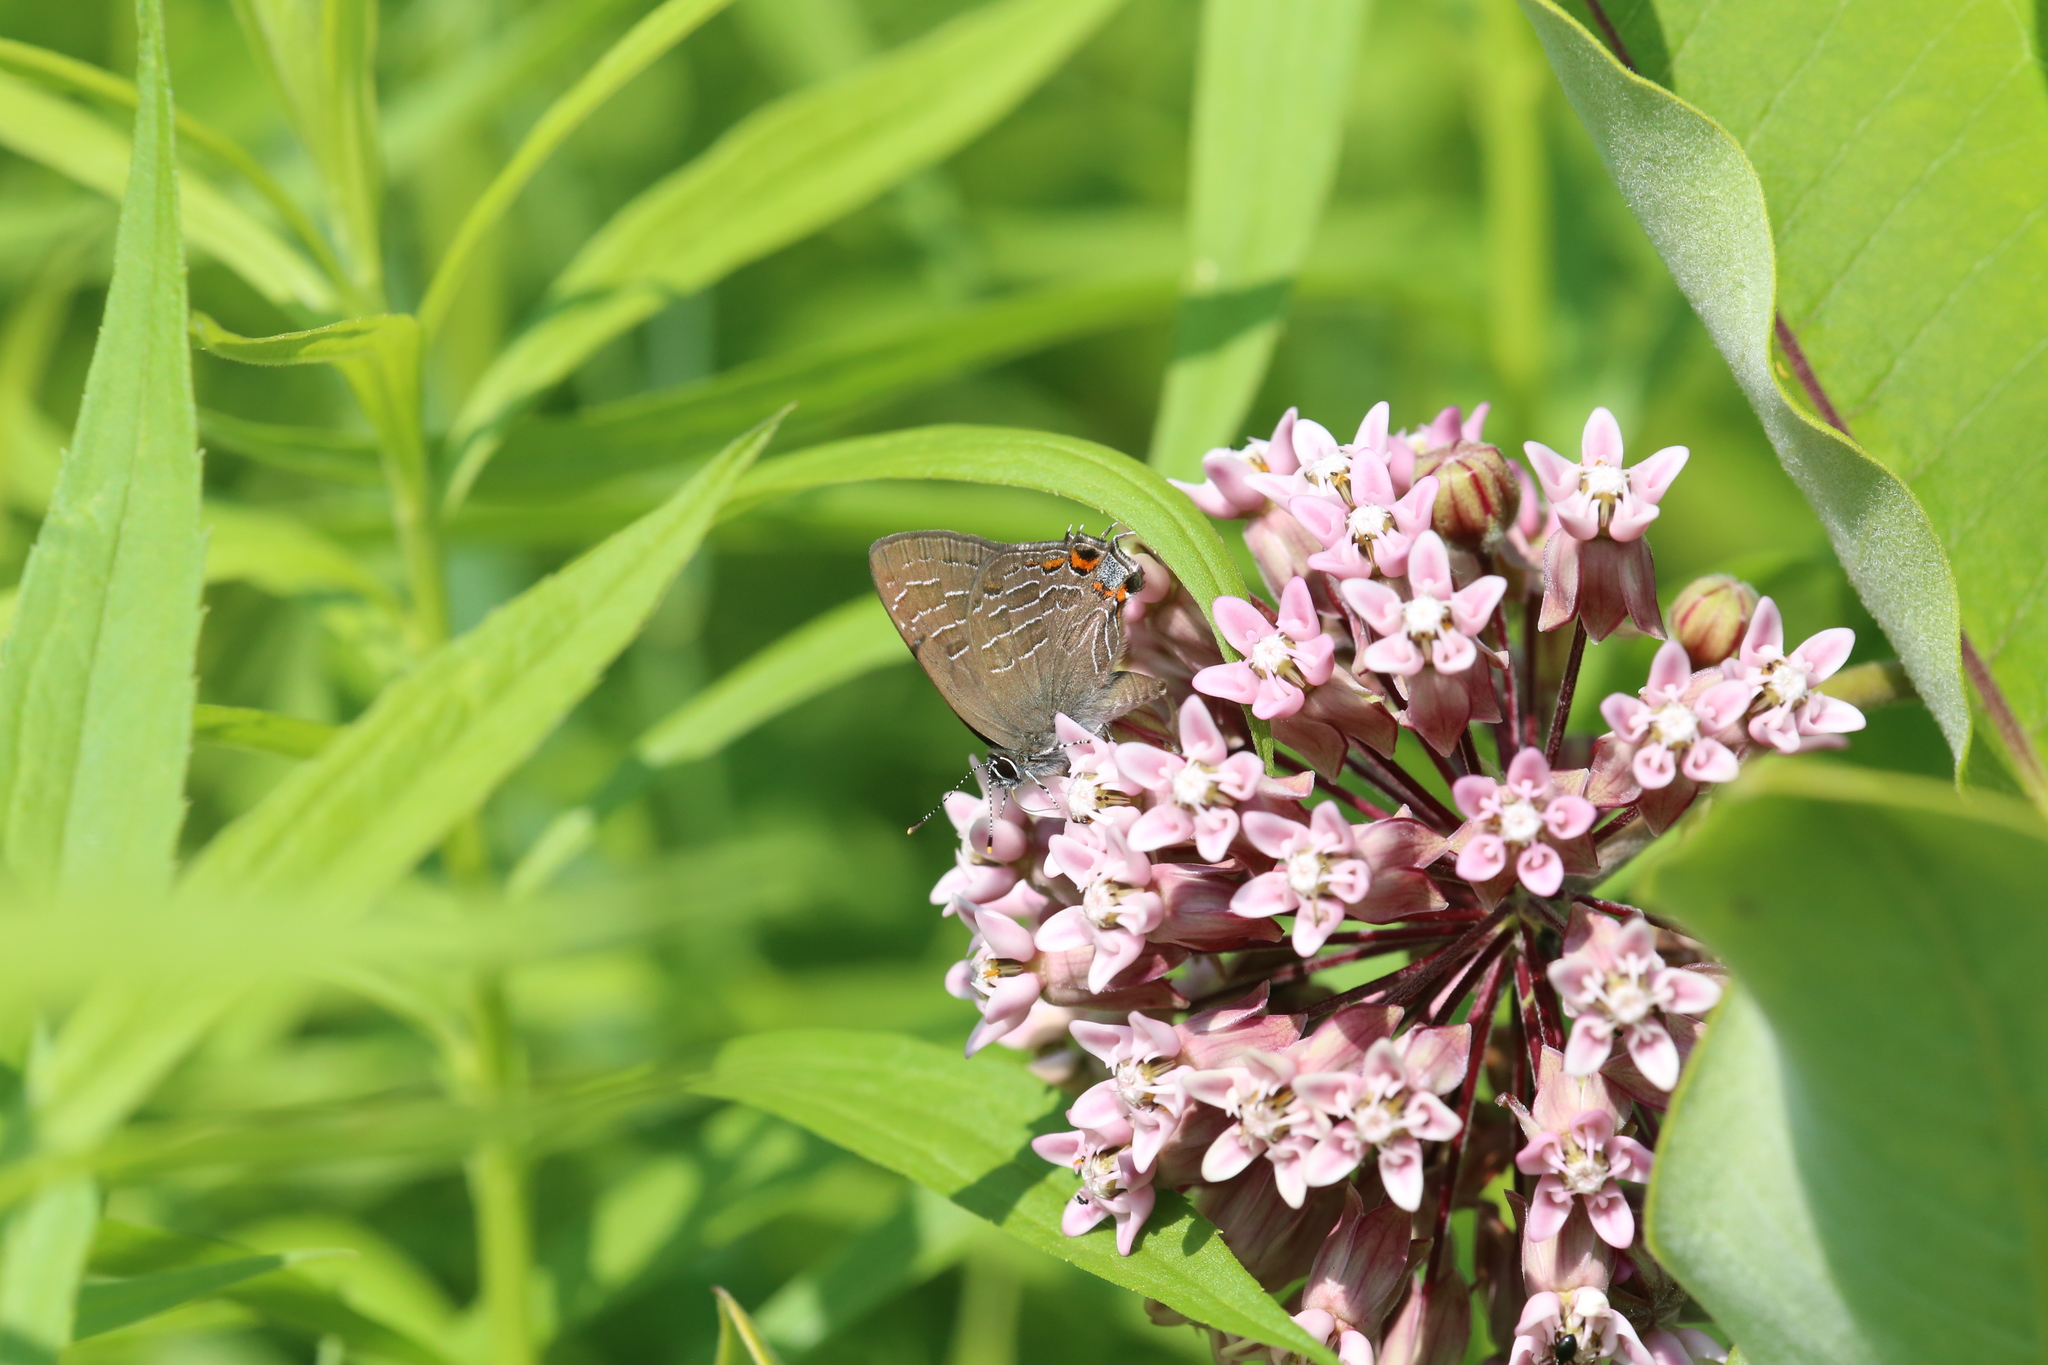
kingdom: Animalia
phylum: Arthropoda
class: Insecta
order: Lepidoptera
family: Lycaenidae
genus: Satyrium
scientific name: Satyrium liparops
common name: Striped hairstreak
